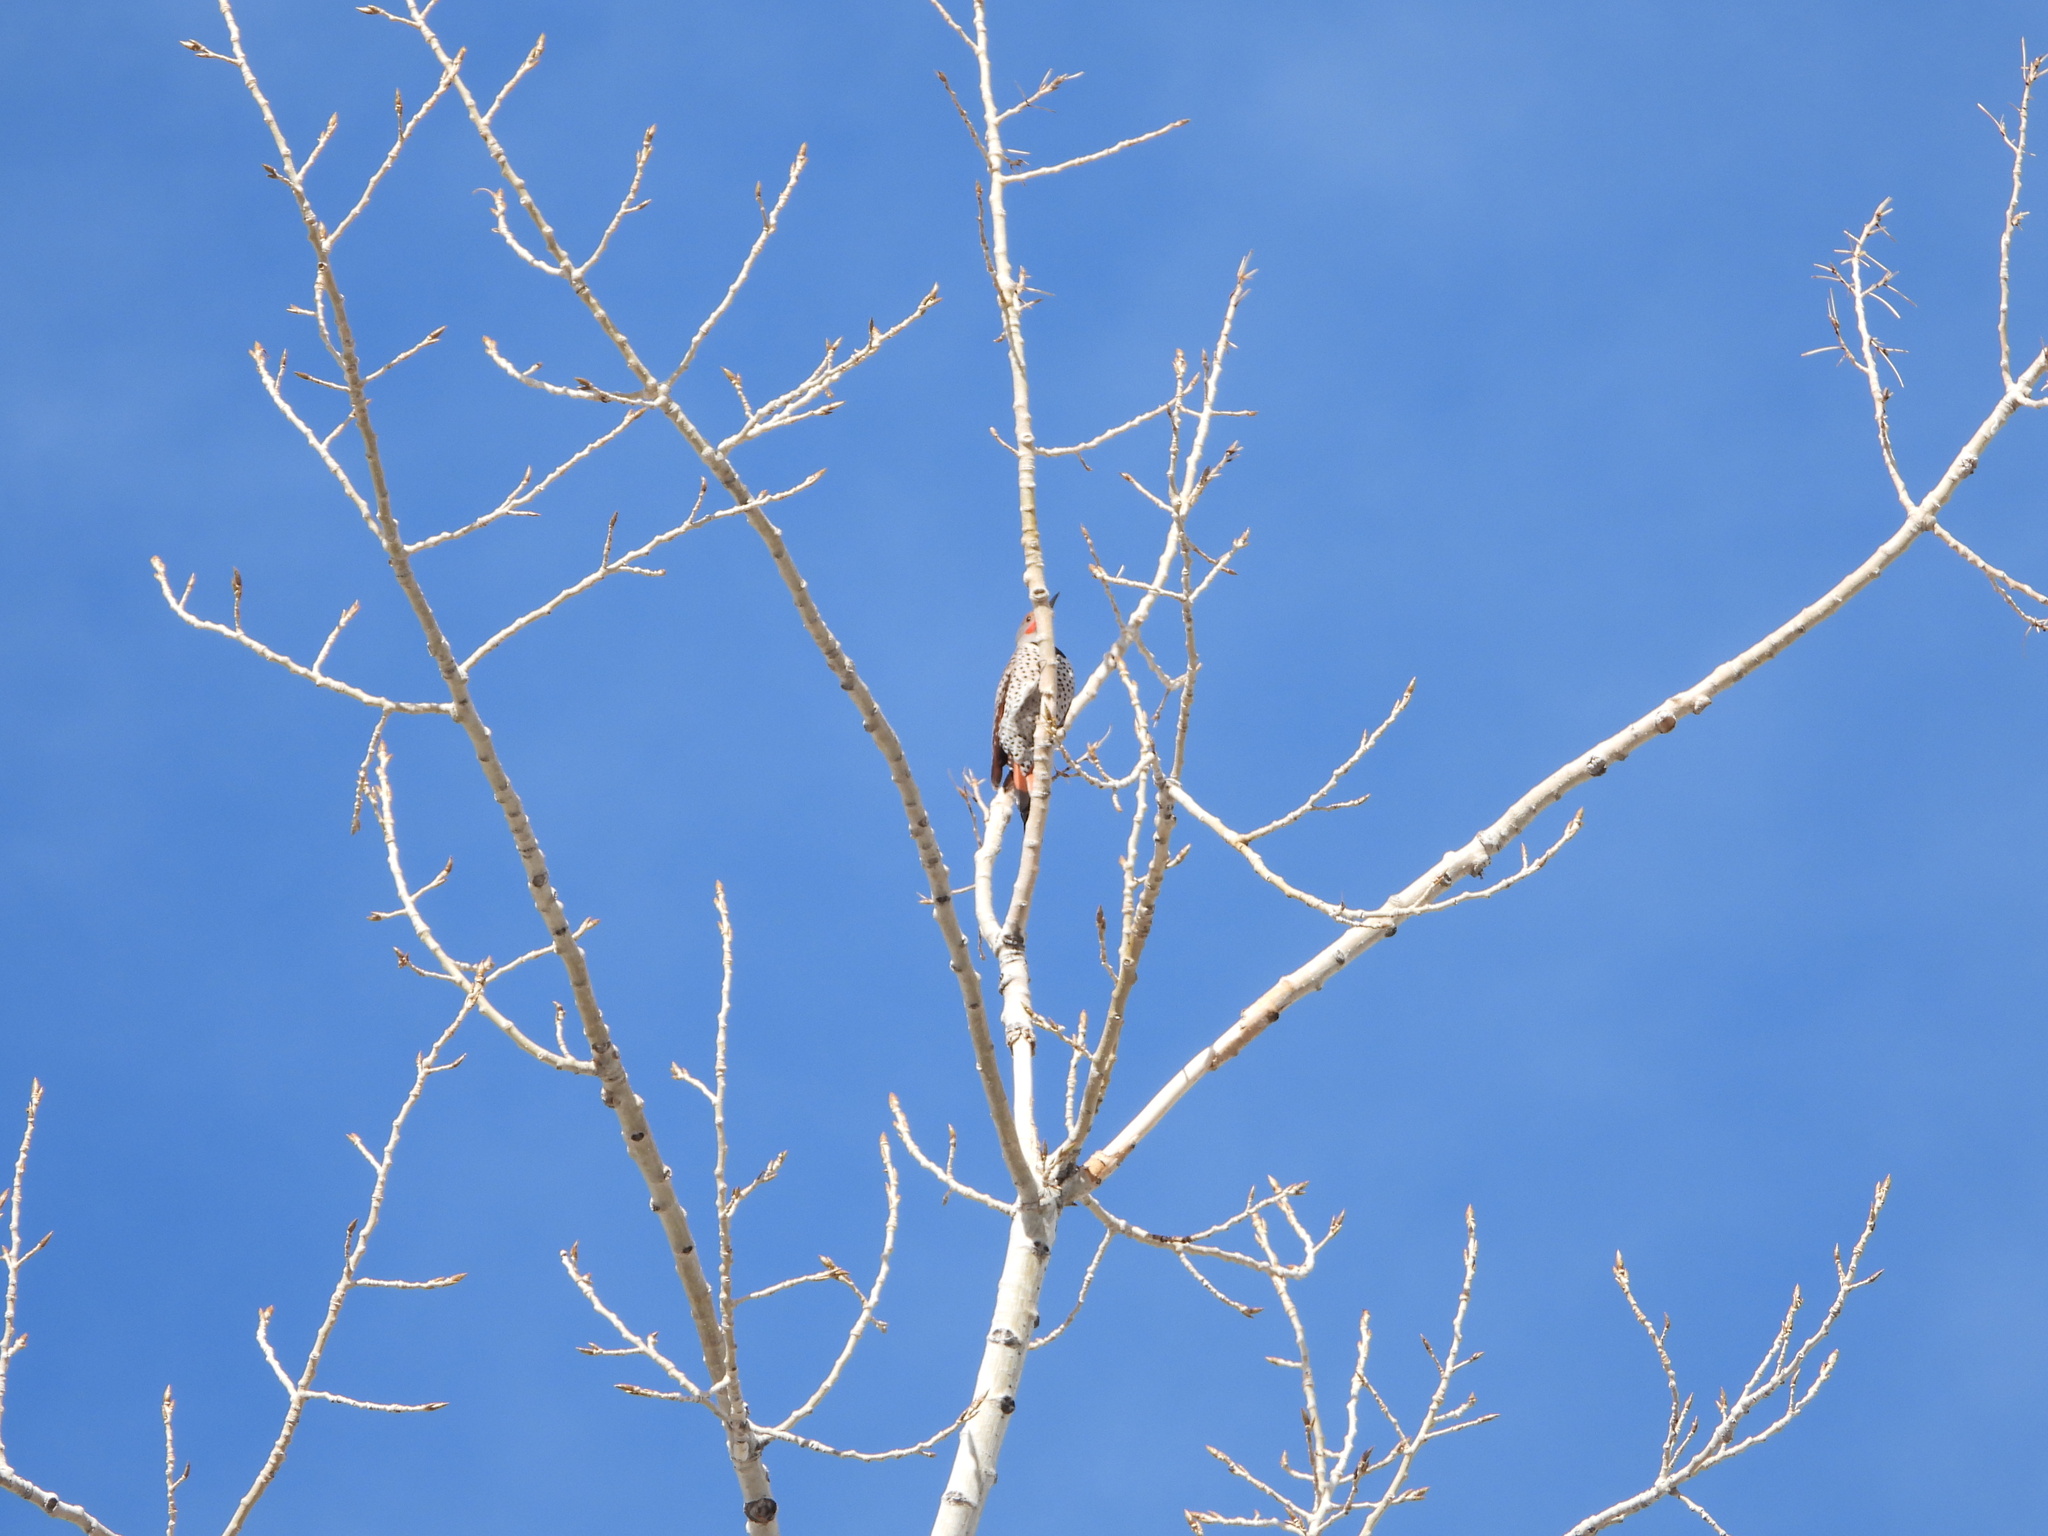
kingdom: Animalia
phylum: Chordata
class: Aves
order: Piciformes
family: Picidae
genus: Colaptes
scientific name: Colaptes auratus
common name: Northern flicker
